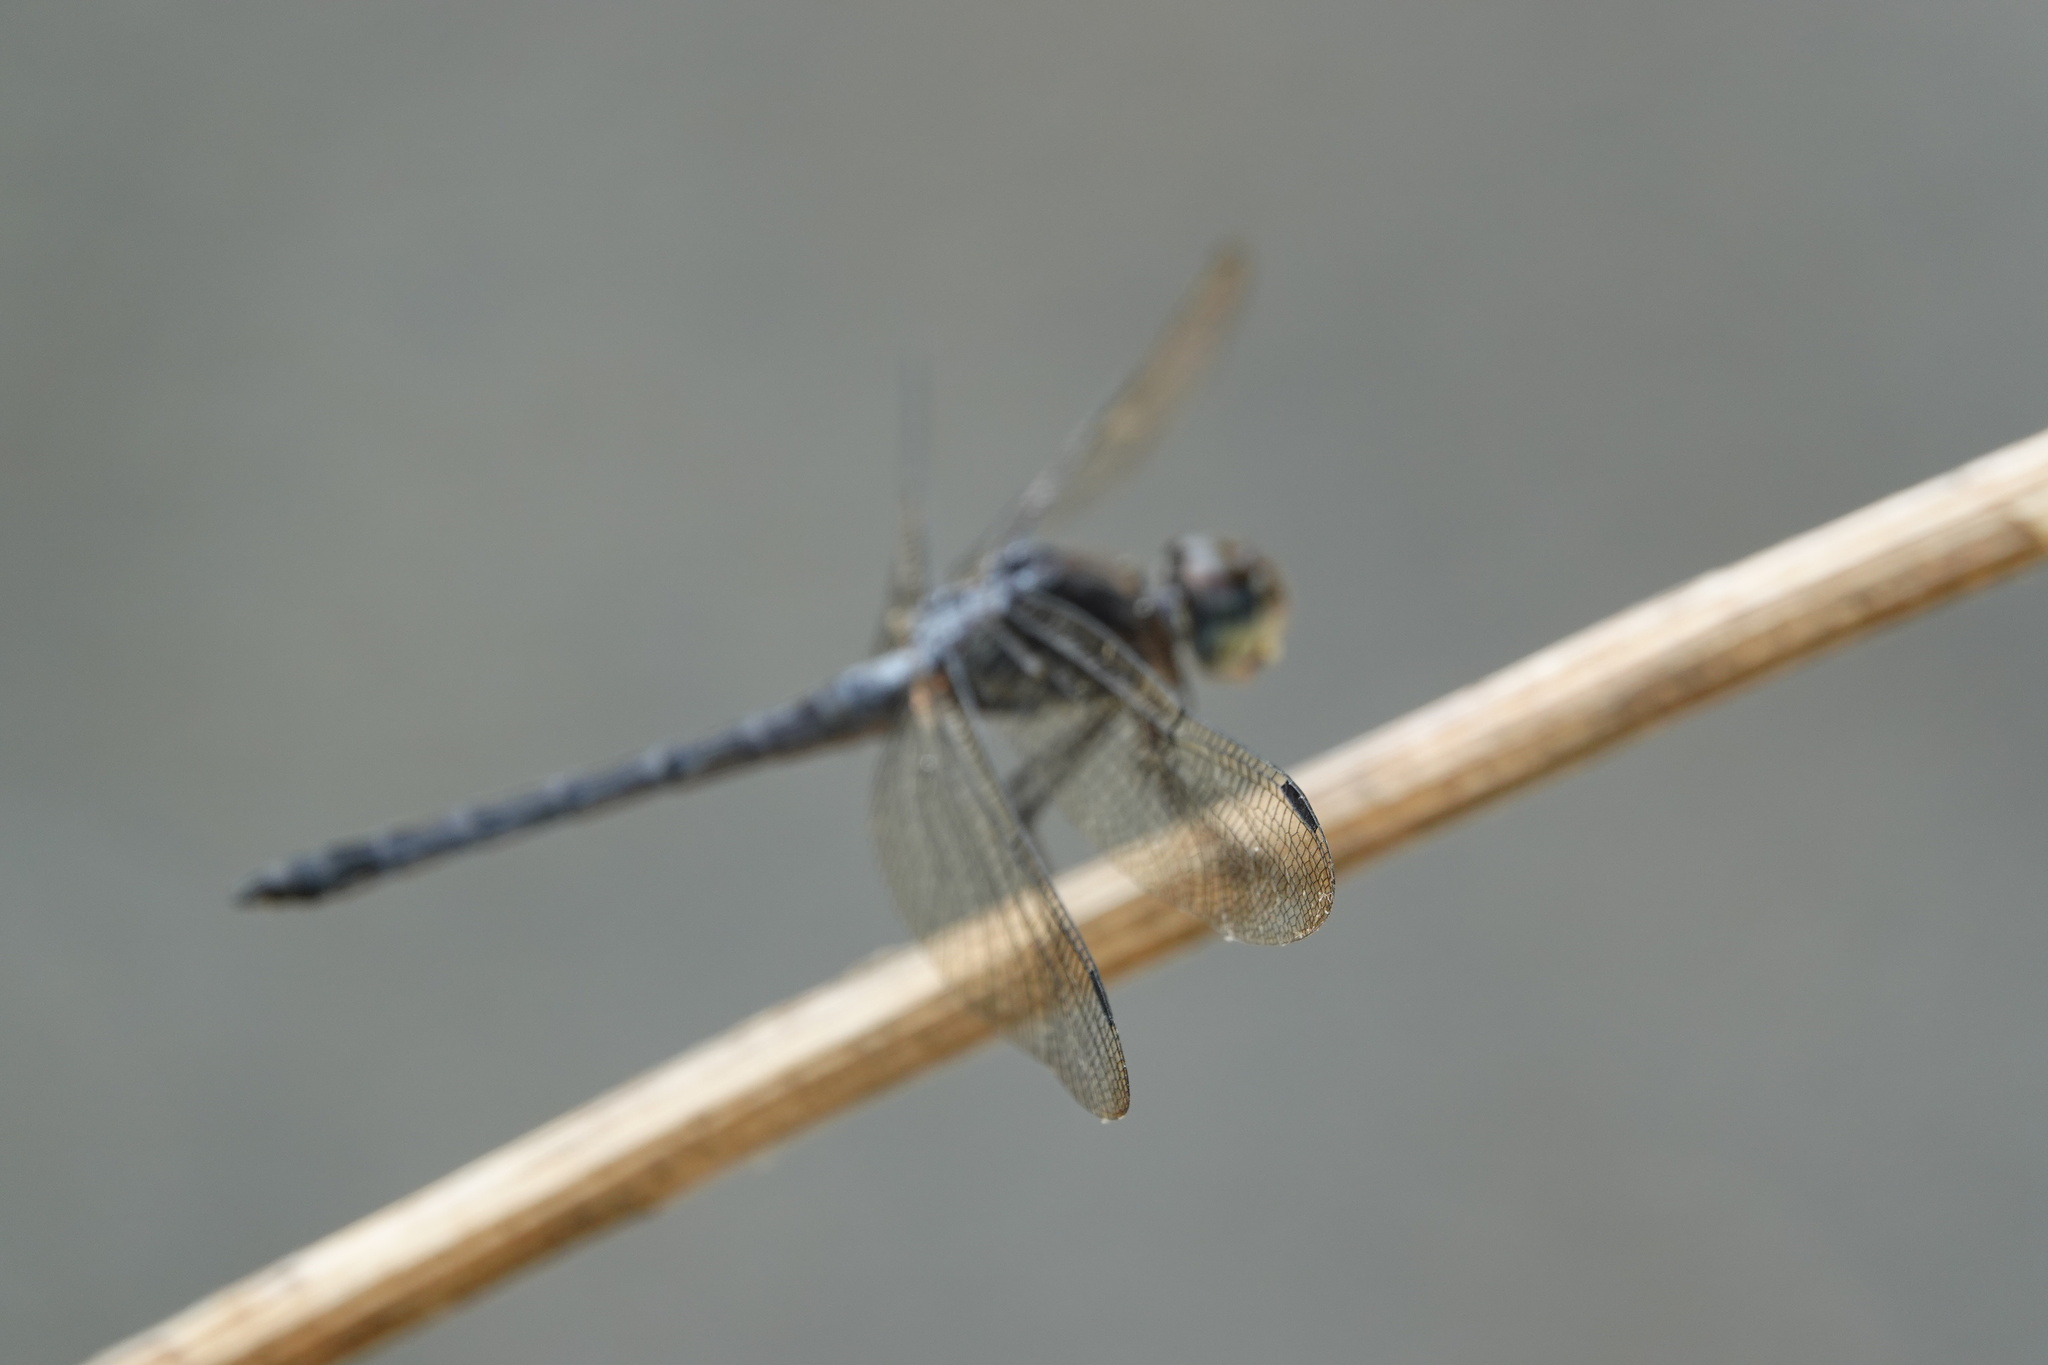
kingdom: Animalia
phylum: Arthropoda
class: Insecta
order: Odonata
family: Libellulidae
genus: Cratilla
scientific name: Cratilla lineata
